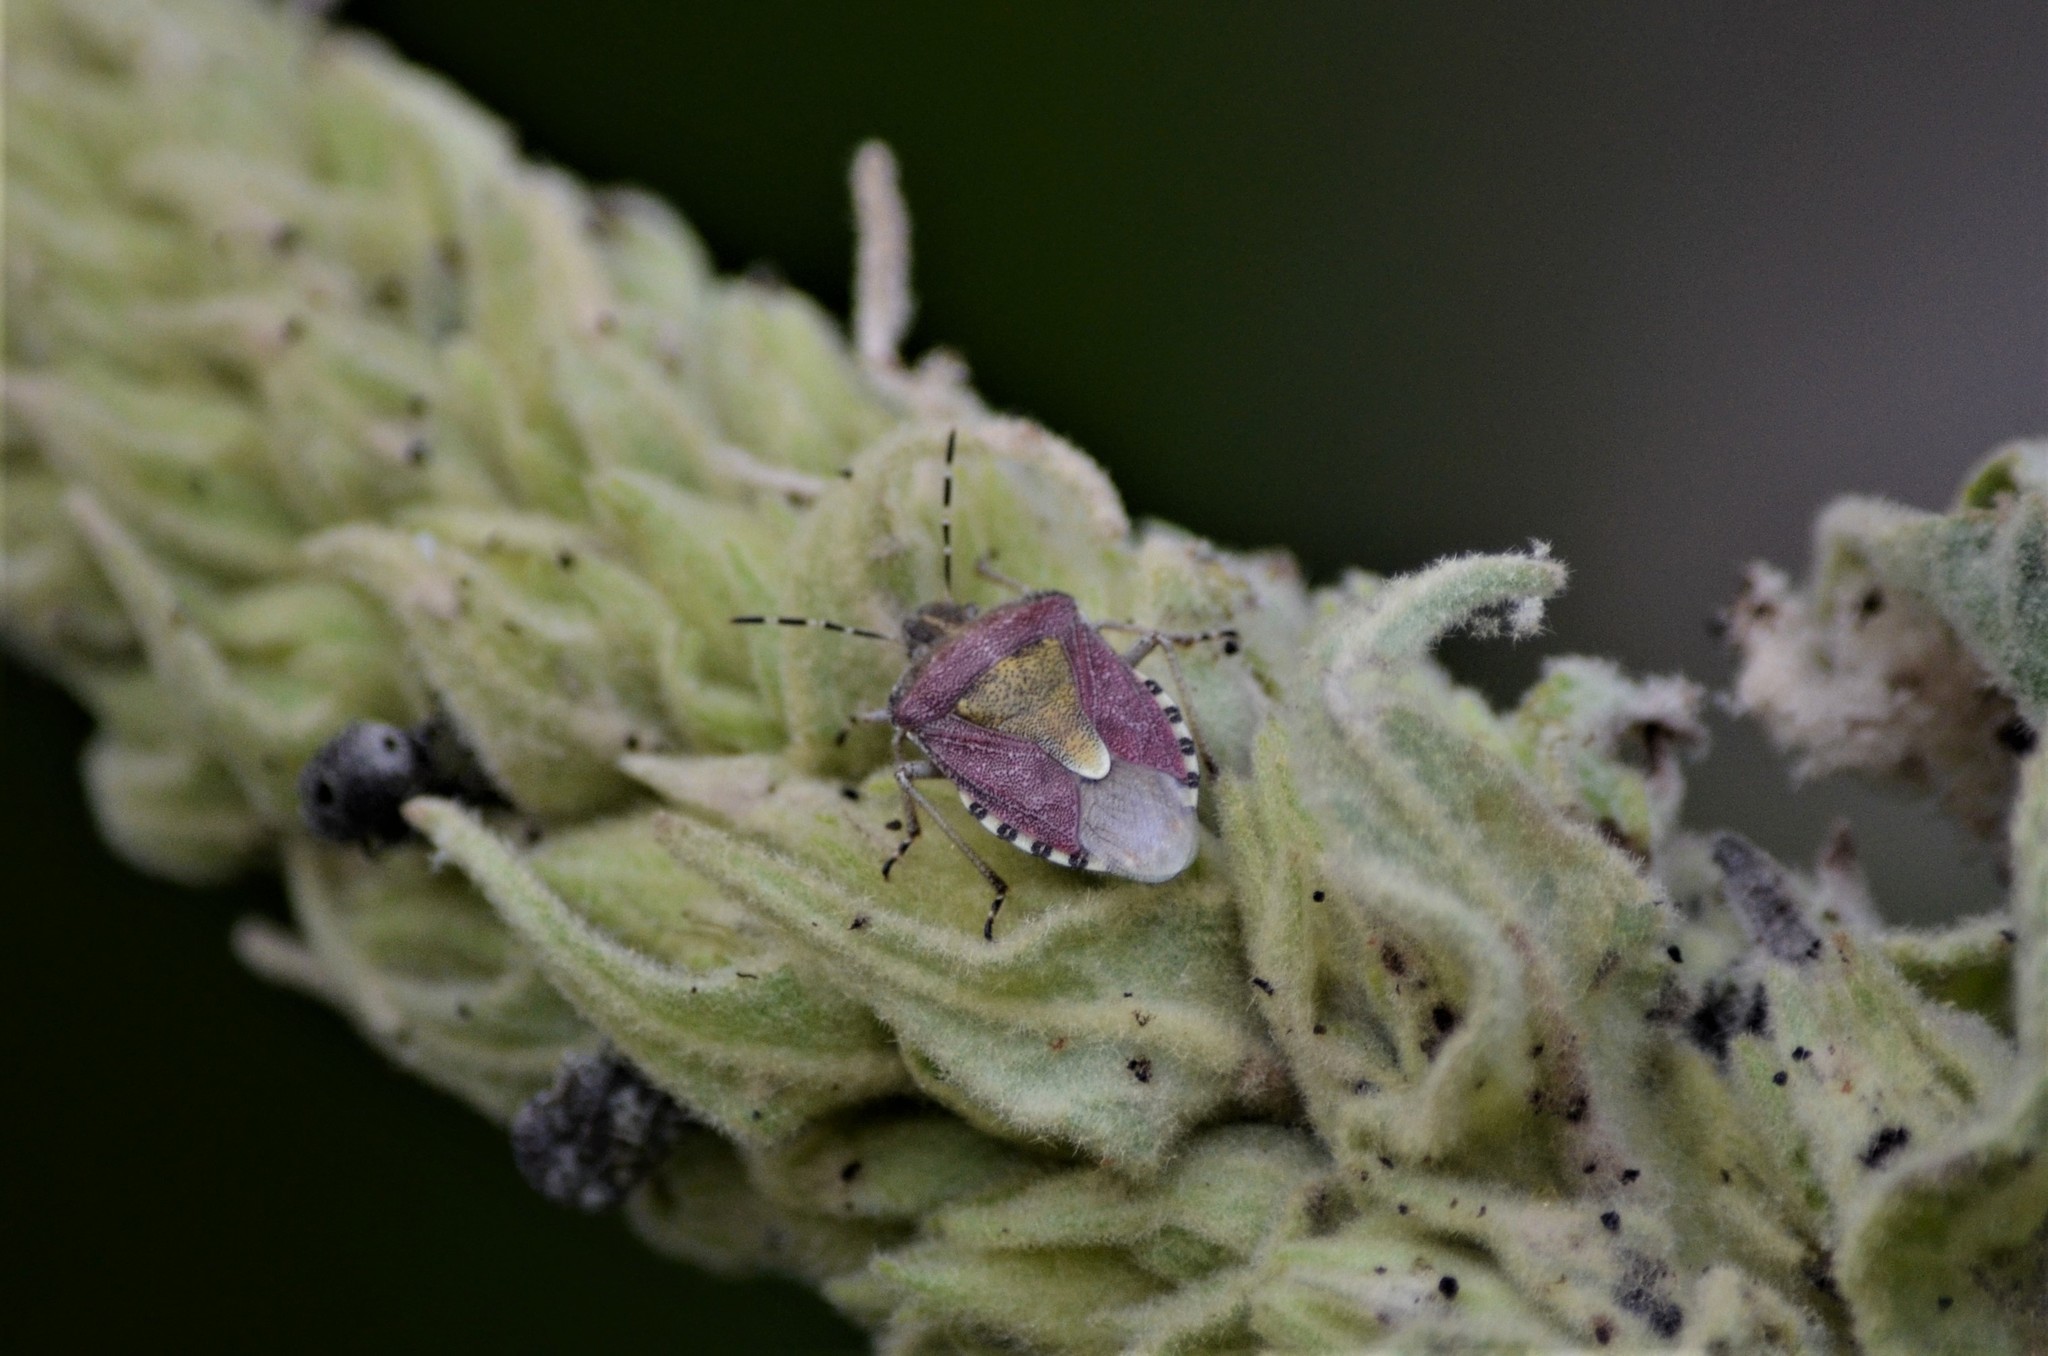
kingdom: Animalia
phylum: Arthropoda
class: Insecta
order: Hemiptera
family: Pentatomidae
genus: Dolycoris
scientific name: Dolycoris baccarum
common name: Sloe bug
